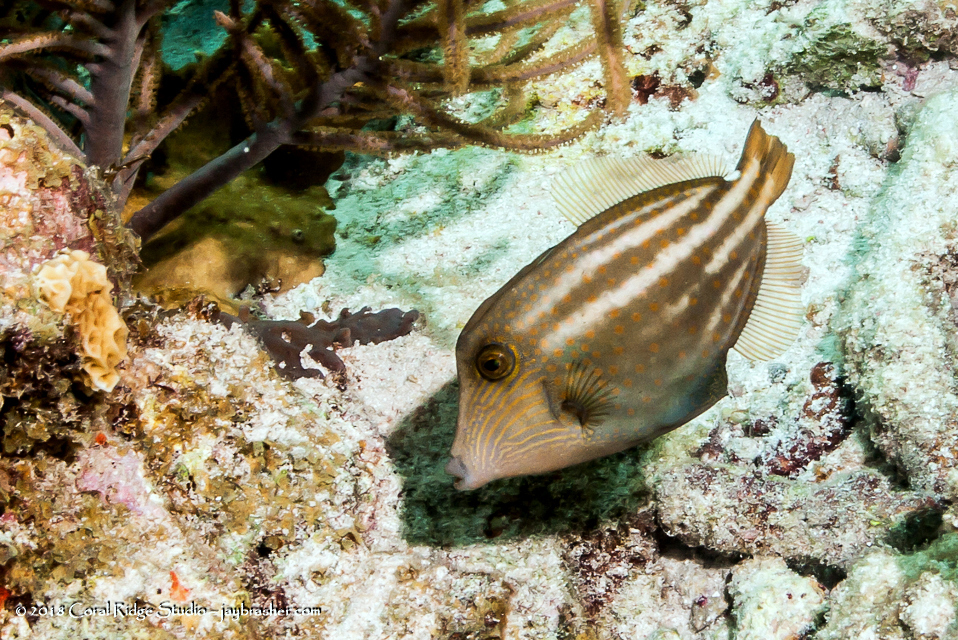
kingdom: Animalia
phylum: Chordata
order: Tetraodontiformes
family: Monacanthidae
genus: Cantherhines
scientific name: Cantherhines pullus
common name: Orangespotted filefish
